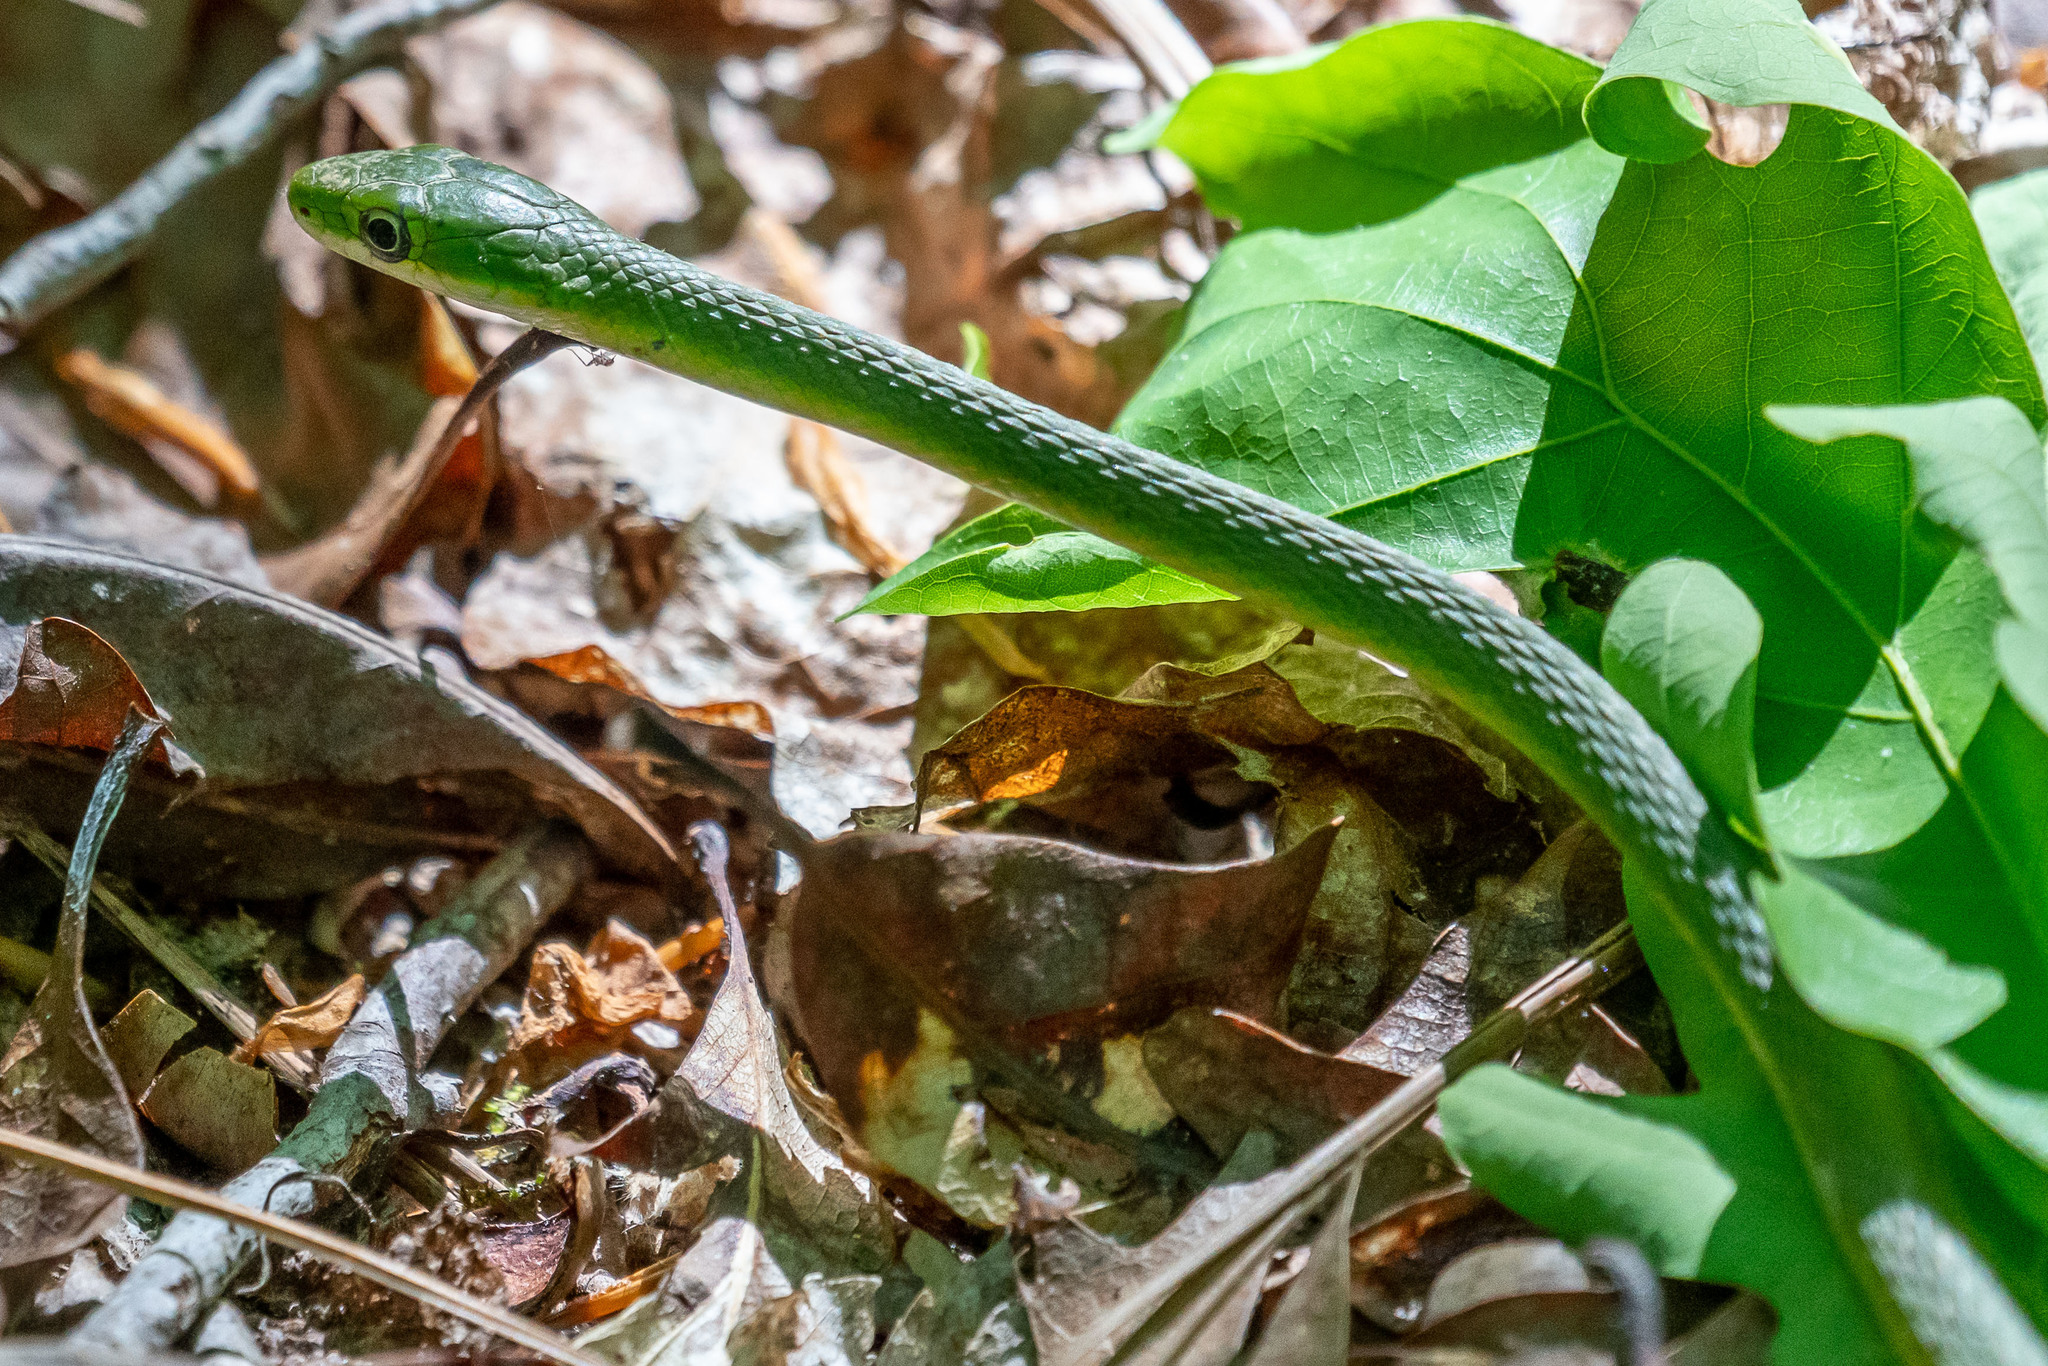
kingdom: Animalia
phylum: Chordata
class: Squamata
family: Colubridae
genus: Opheodrys
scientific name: Opheodrys aestivus
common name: Rough greensnake
